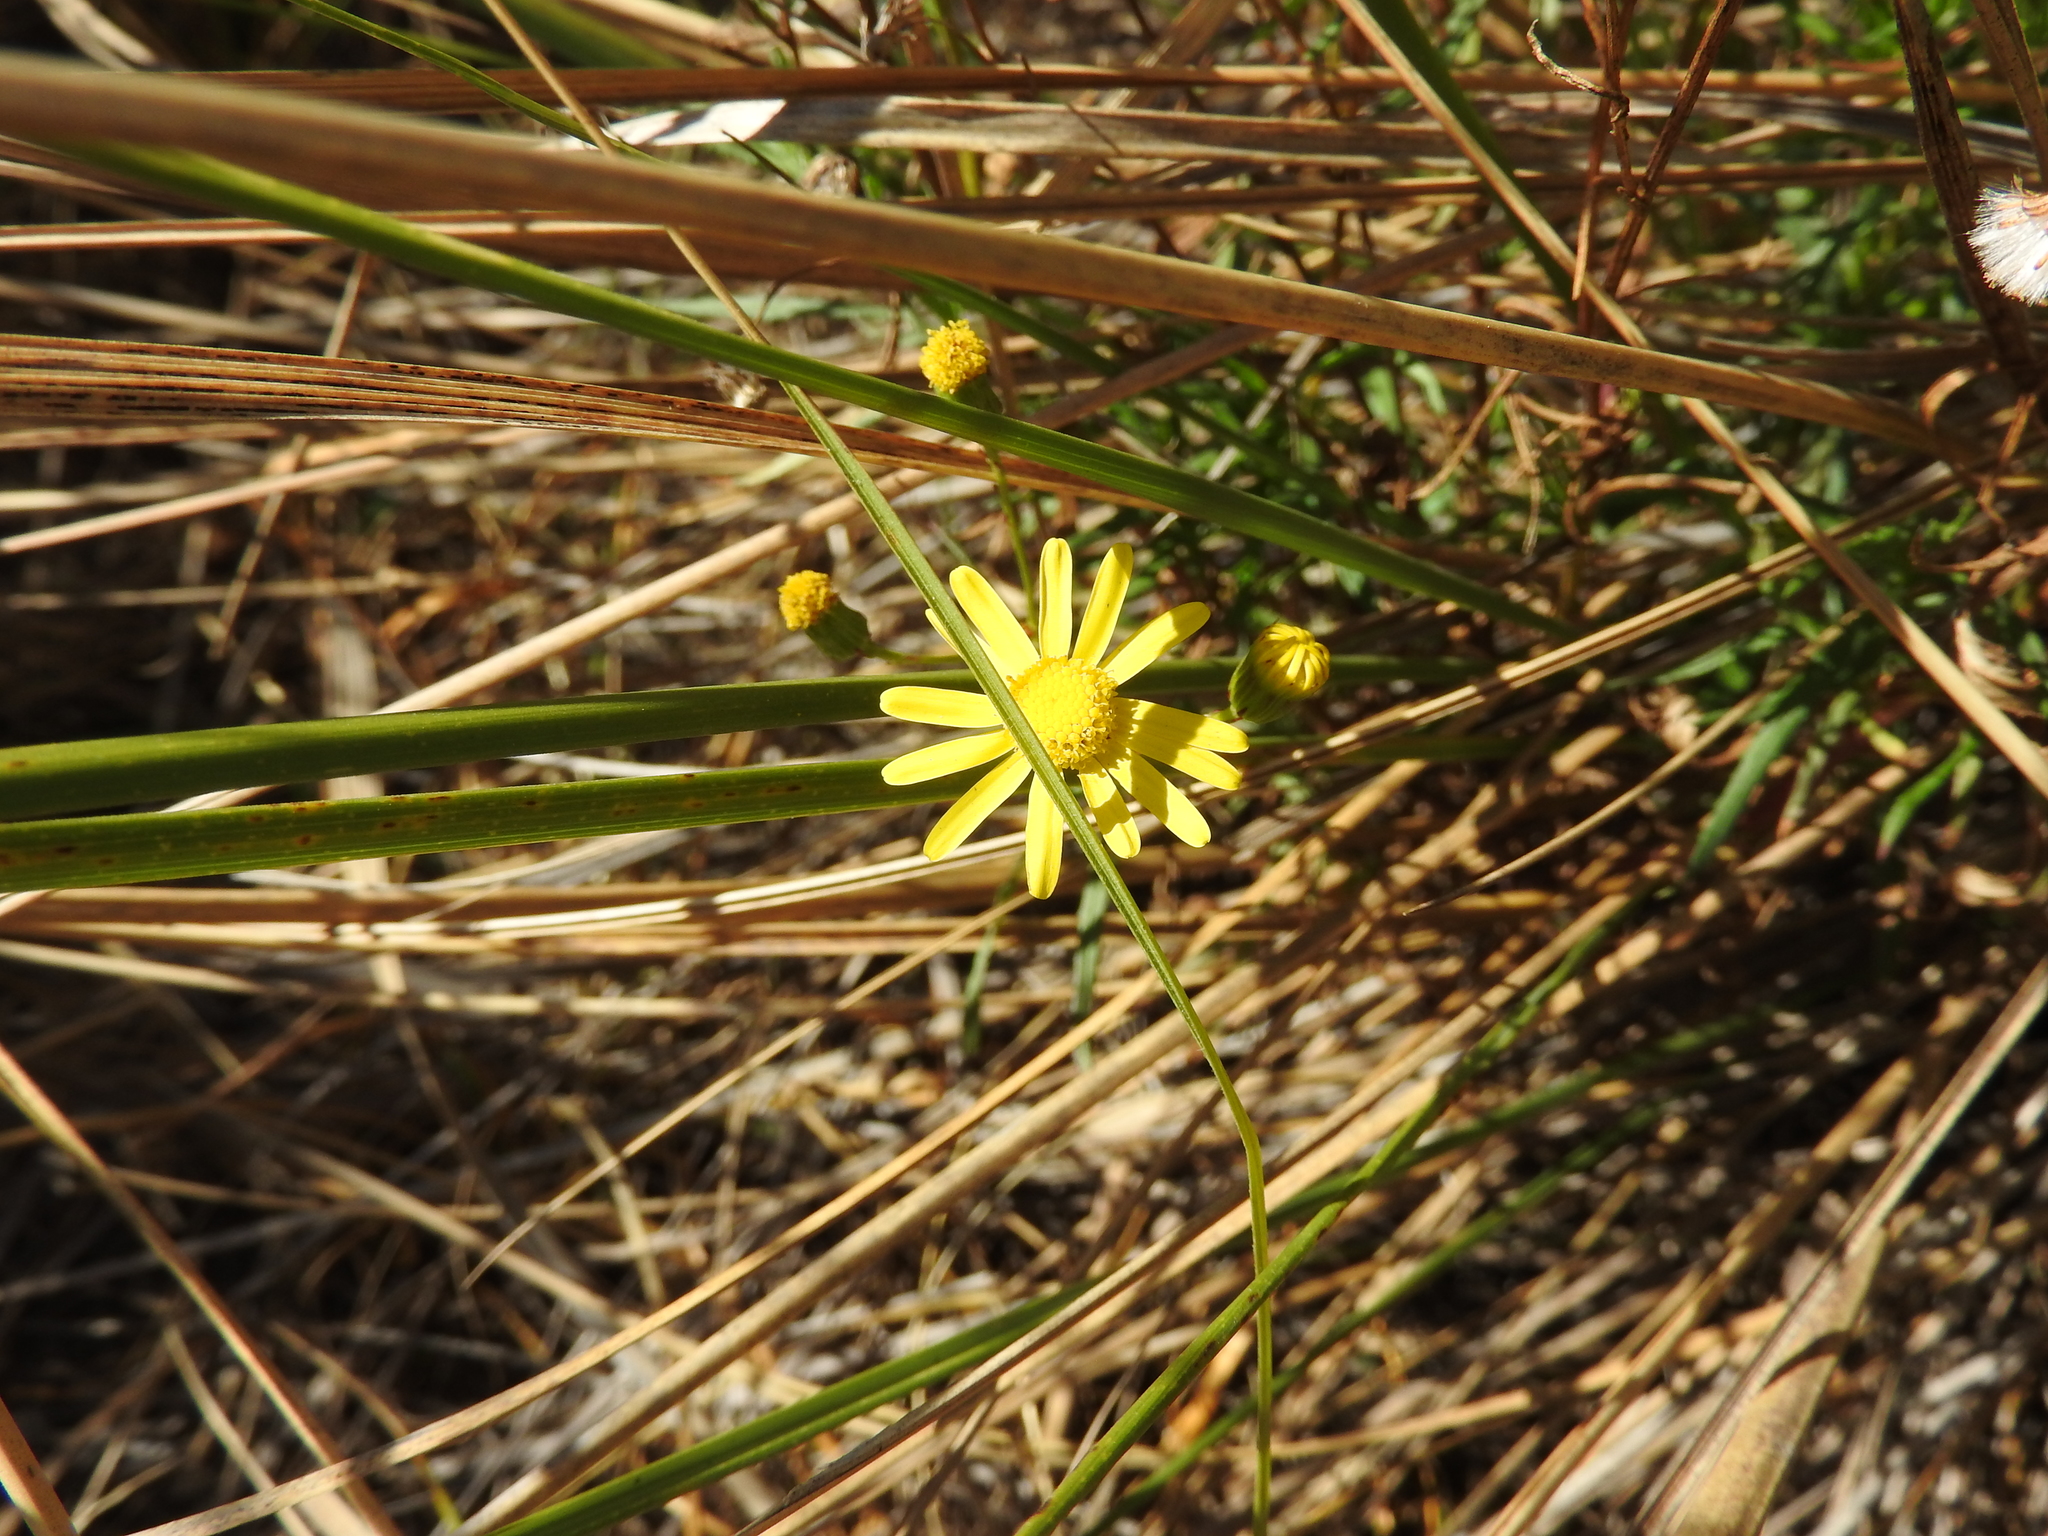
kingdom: Plantae
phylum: Tracheophyta
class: Magnoliopsida
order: Asterales
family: Asteraceae
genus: Senecio
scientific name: Senecio inaequidens
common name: Narrow-leaved ragwort
